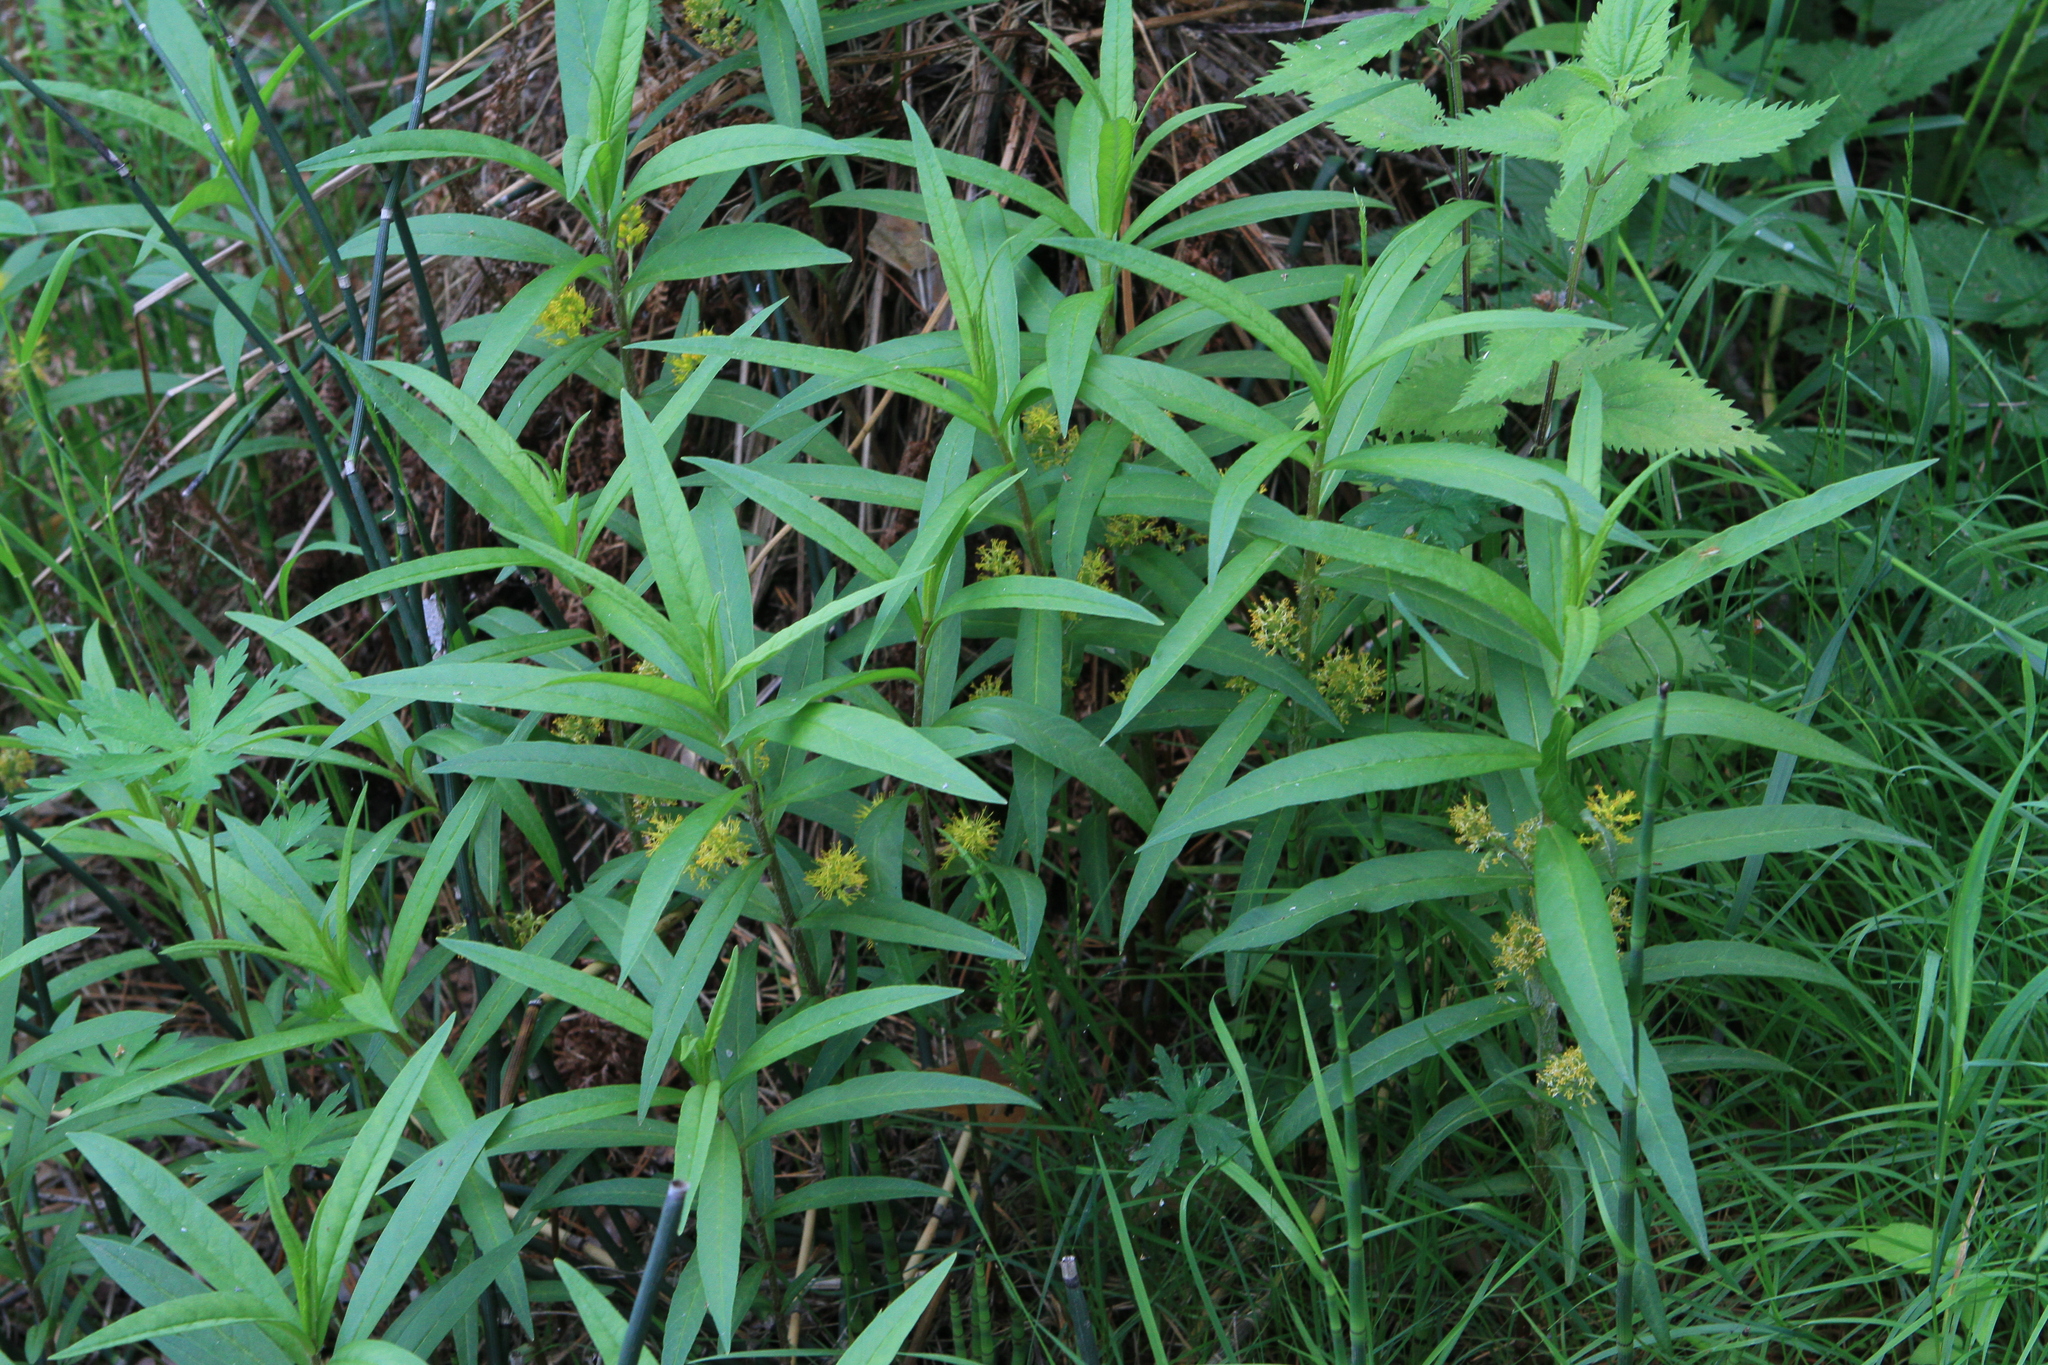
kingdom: Plantae
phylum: Tracheophyta
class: Magnoliopsida
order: Ericales
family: Primulaceae
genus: Lysimachia
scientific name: Lysimachia thyrsiflora
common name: Tufted loosestrife
